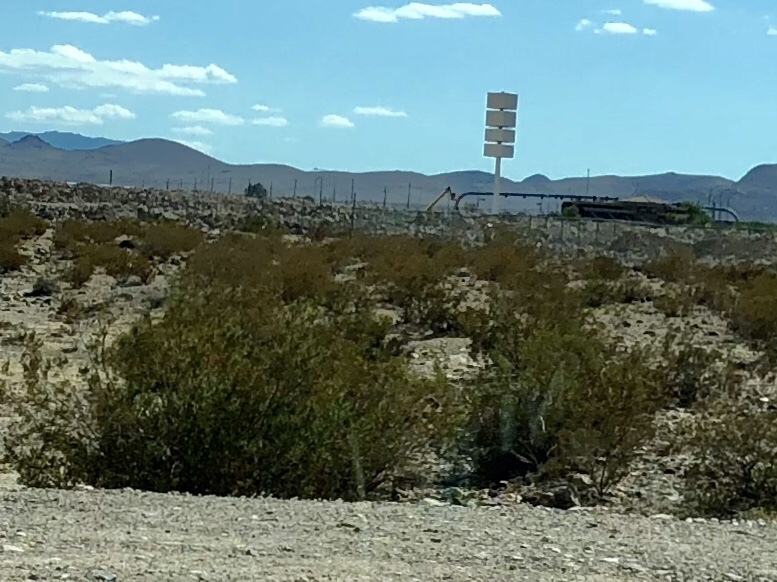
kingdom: Plantae
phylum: Tracheophyta
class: Magnoliopsida
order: Zygophyllales
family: Zygophyllaceae
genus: Larrea
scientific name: Larrea tridentata
